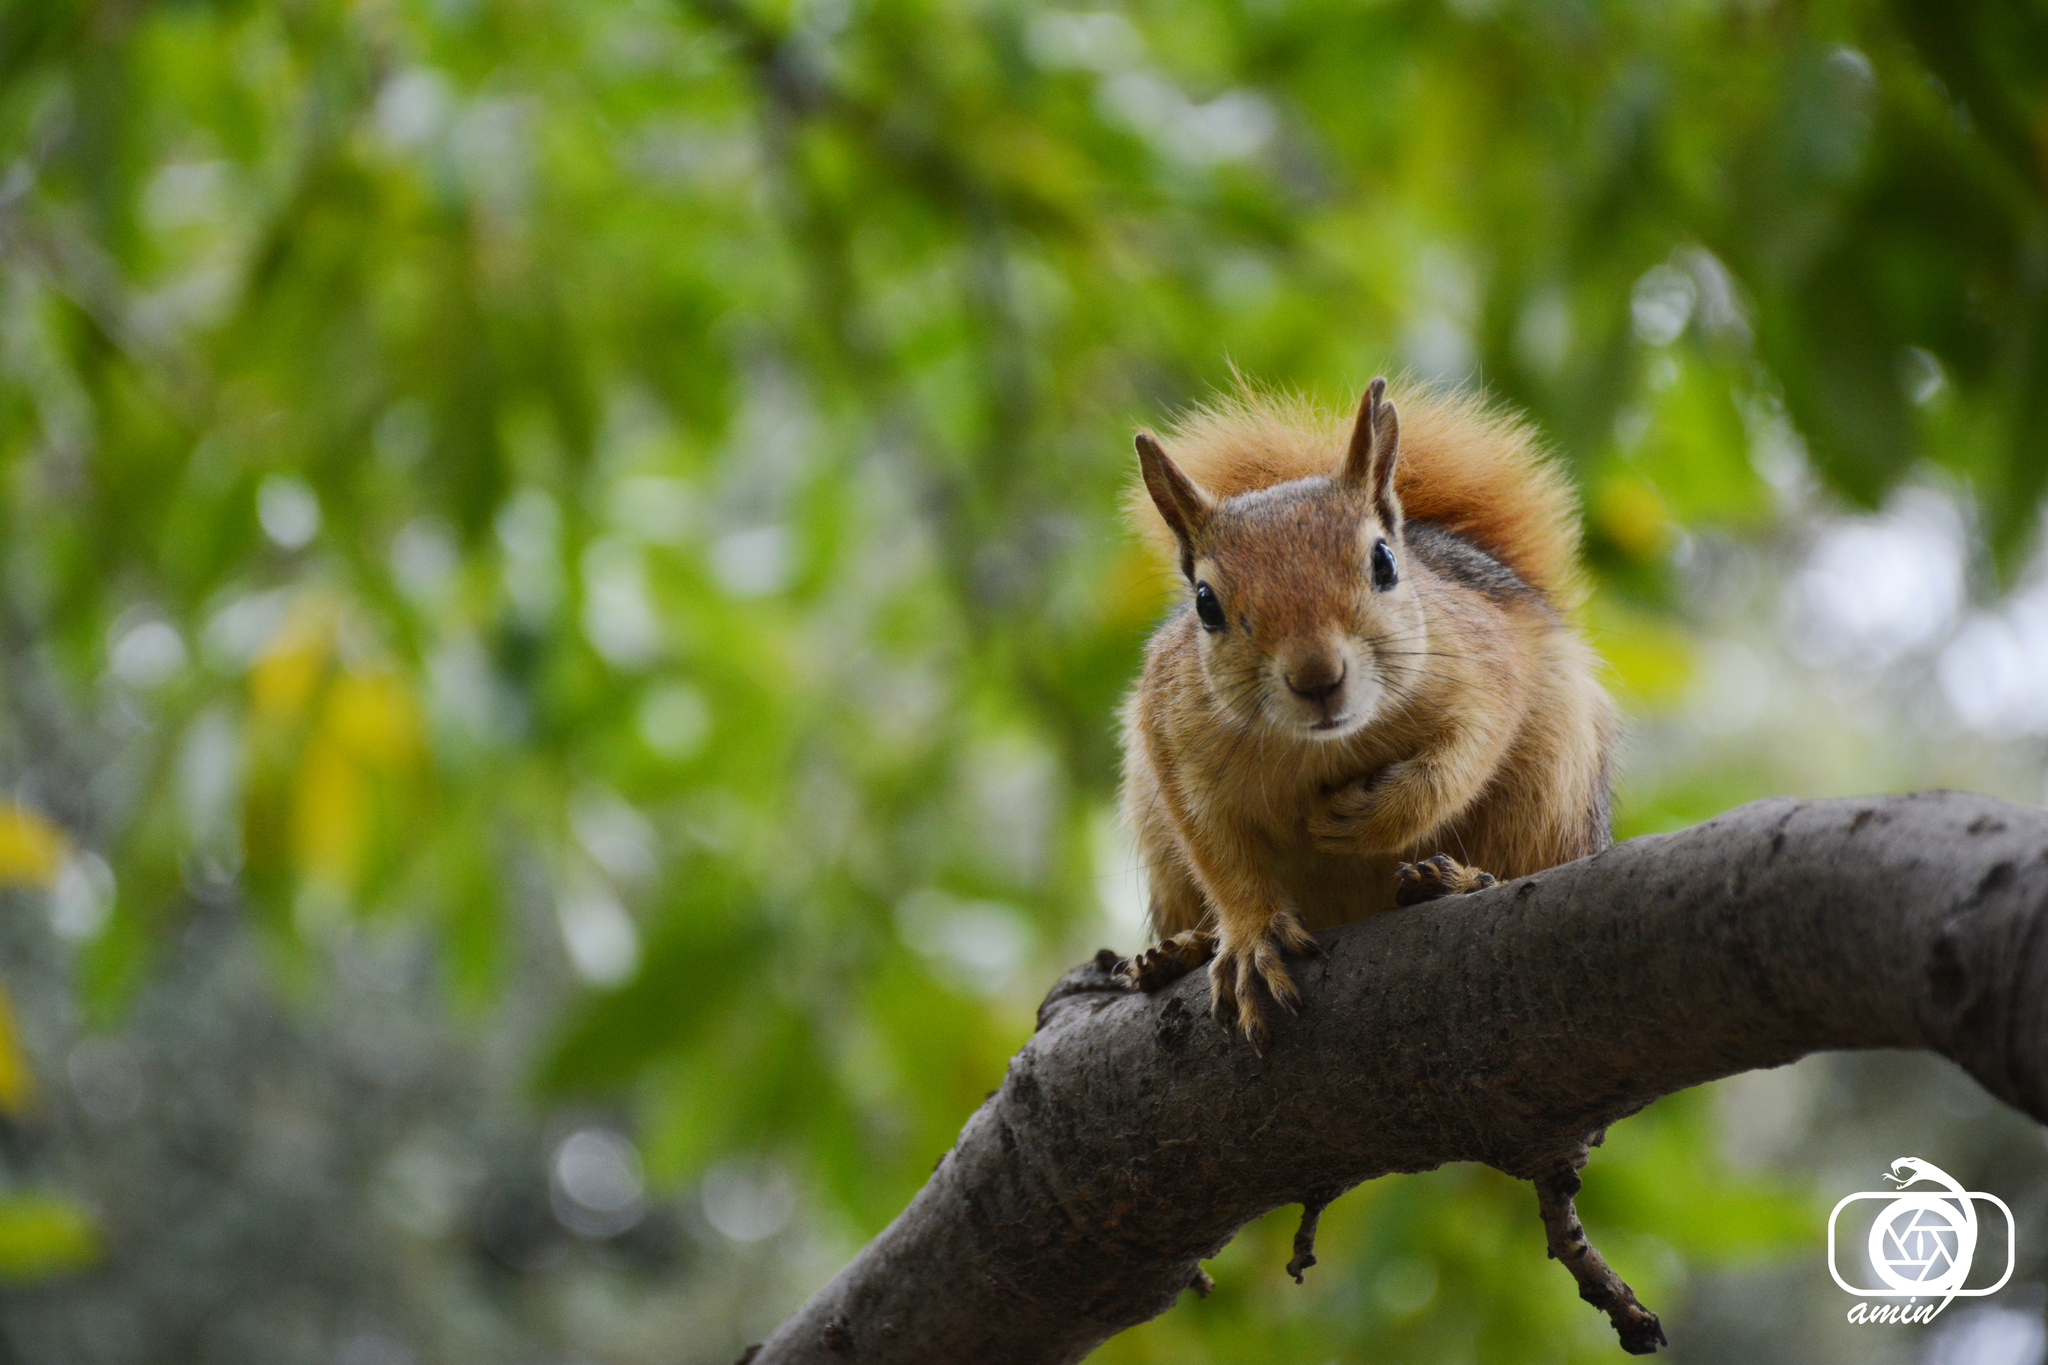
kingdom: Animalia
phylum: Chordata
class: Mammalia
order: Rodentia
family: Sciuridae
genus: Sciurus
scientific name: Sciurus anomalus
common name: Caucasian squirrel
